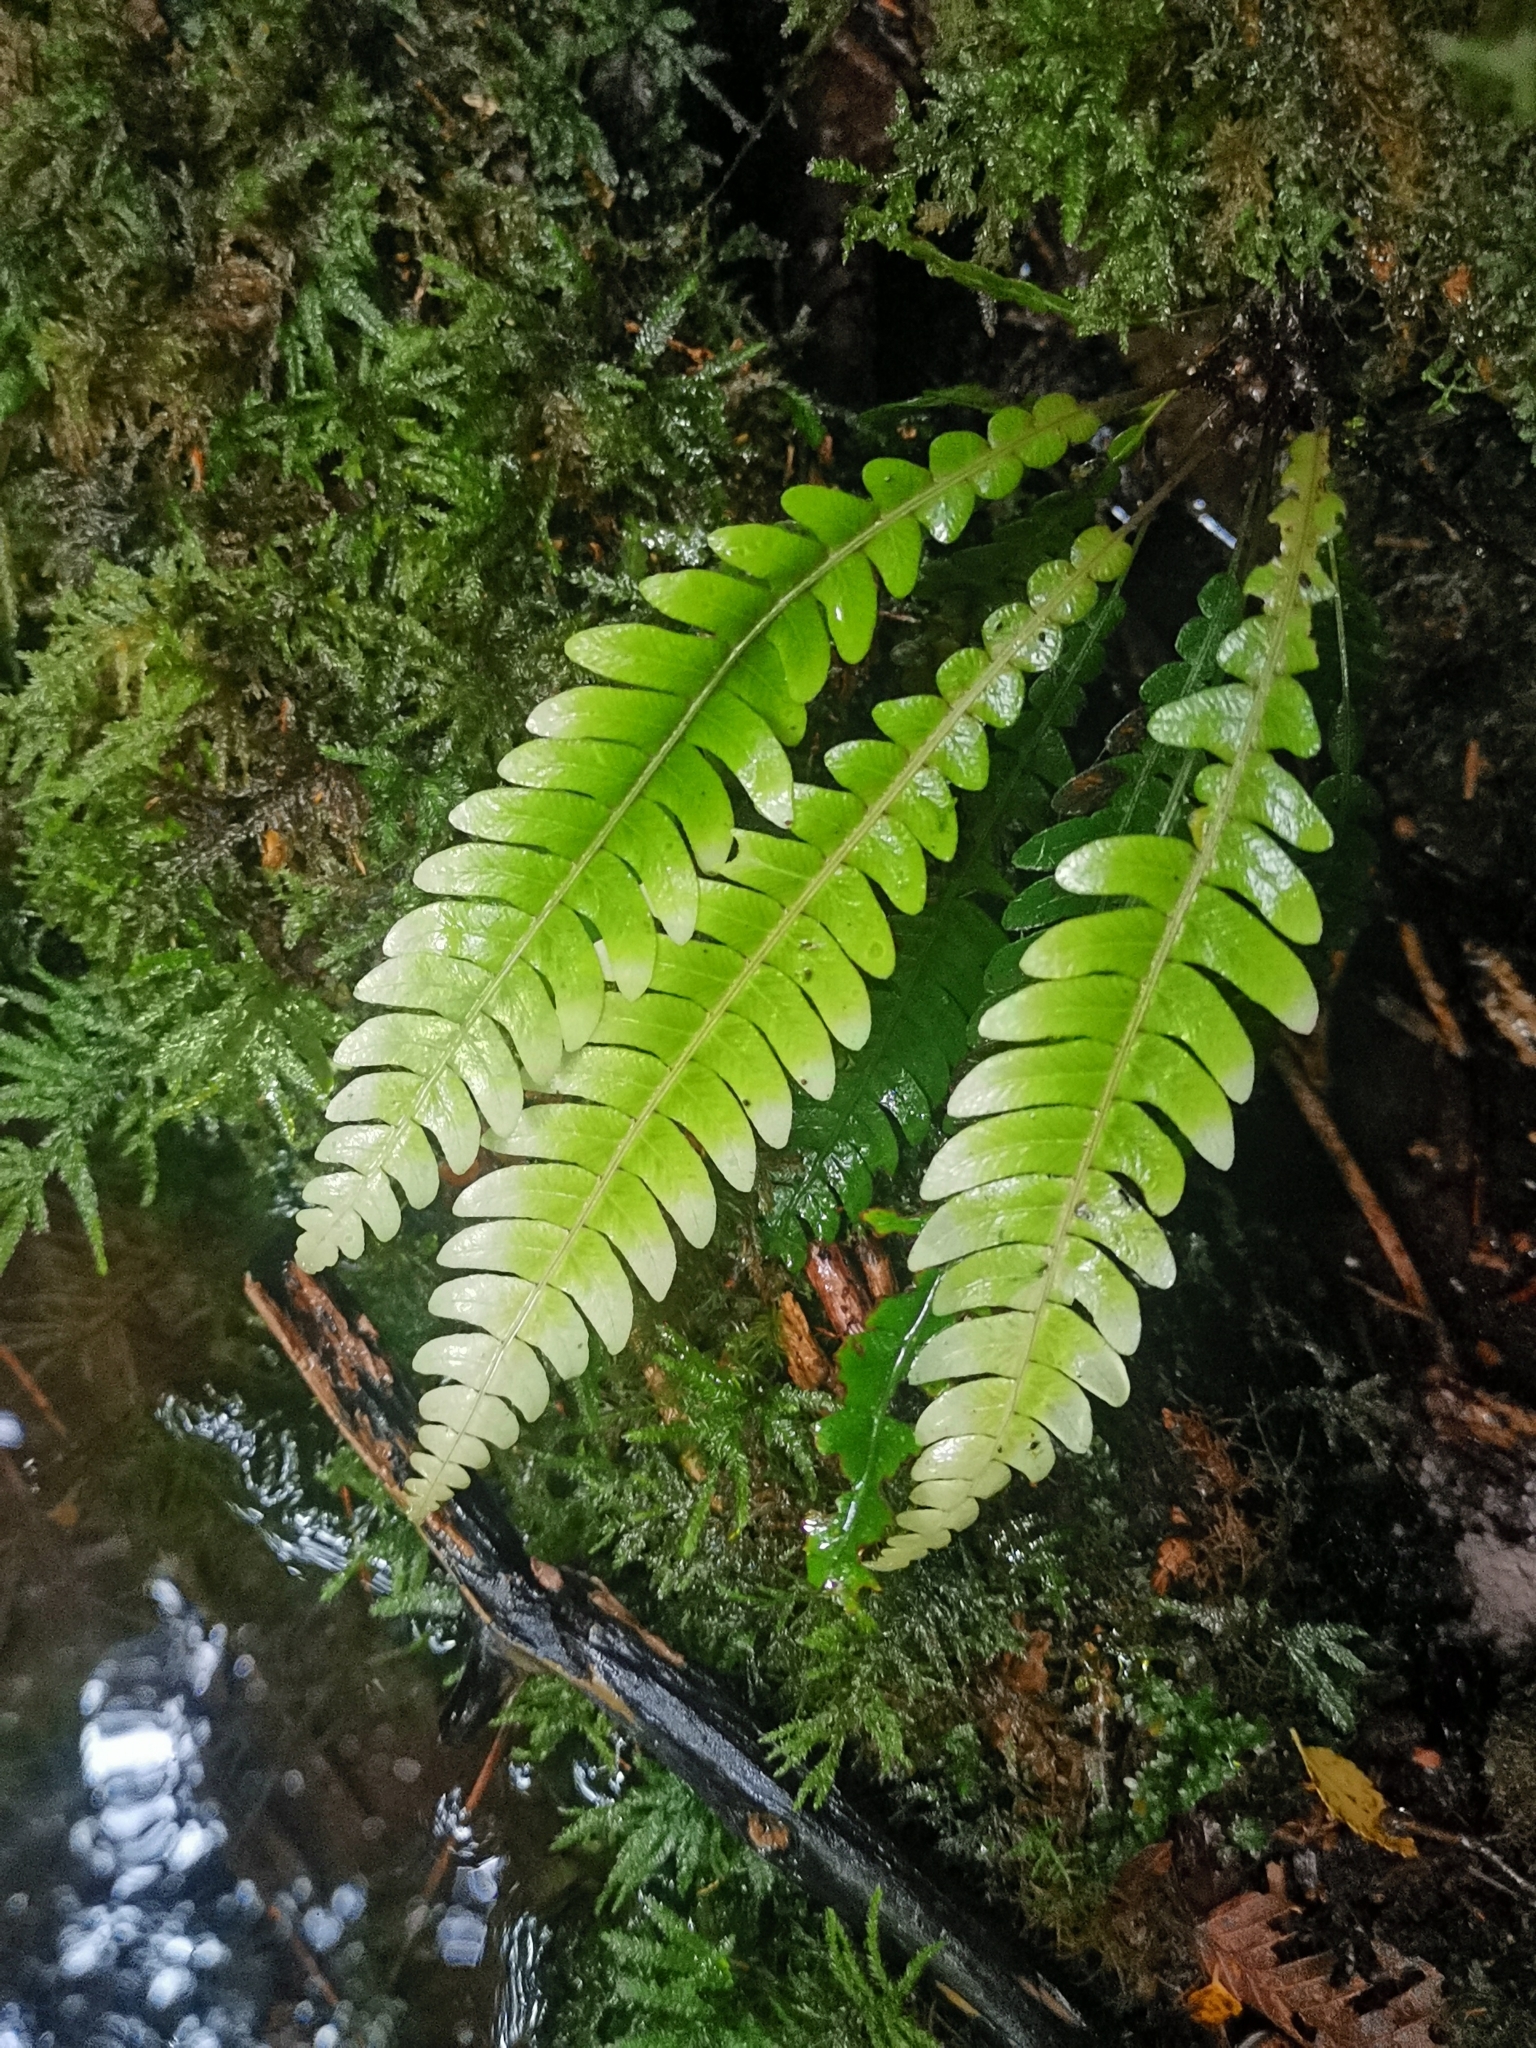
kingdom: Plantae
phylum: Tracheophyta
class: Polypodiopsida
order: Polypodiales
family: Blechnaceae
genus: Austroblechnum
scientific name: Austroblechnum lechleri
